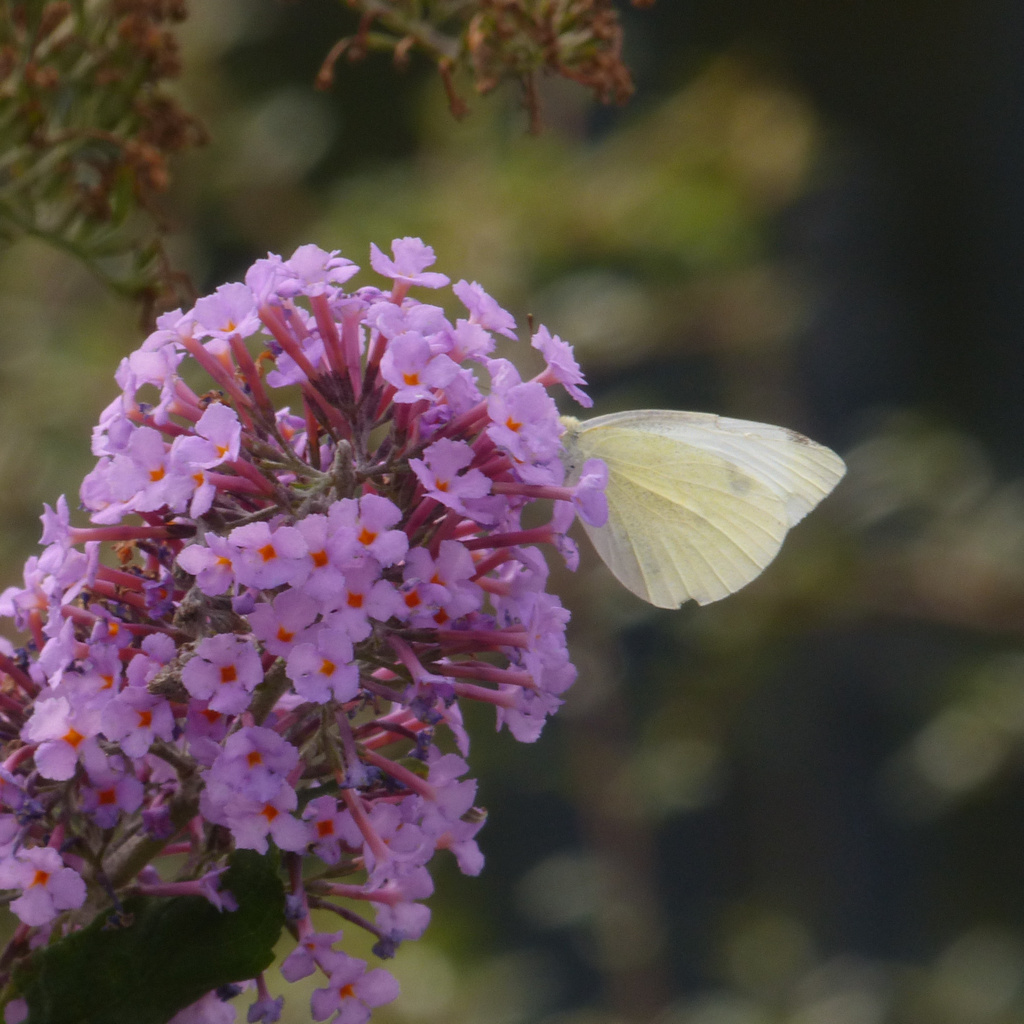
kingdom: Animalia
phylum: Arthropoda
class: Insecta
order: Lepidoptera
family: Pieridae
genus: Pieris
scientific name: Pieris rapae
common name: Small white
